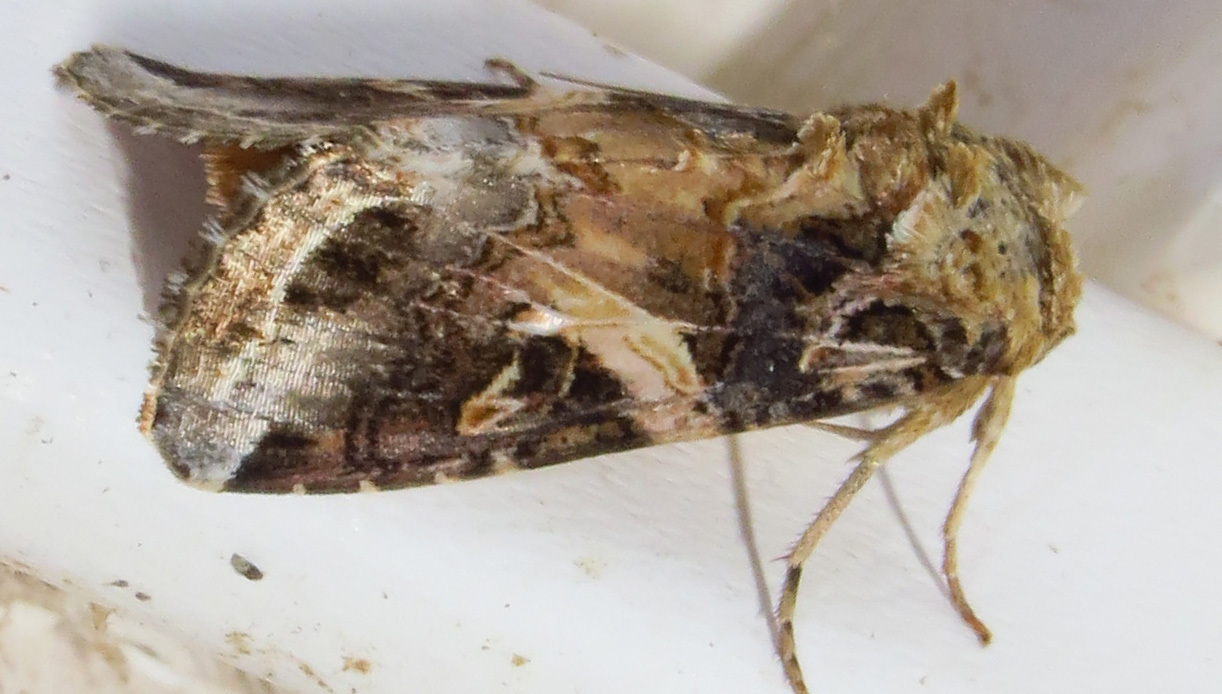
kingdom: Animalia
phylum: Arthropoda
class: Insecta
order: Lepidoptera
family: Noctuidae
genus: Spodoptera
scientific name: Spodoptera ornithogalli
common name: Yellow-striped armyworm
